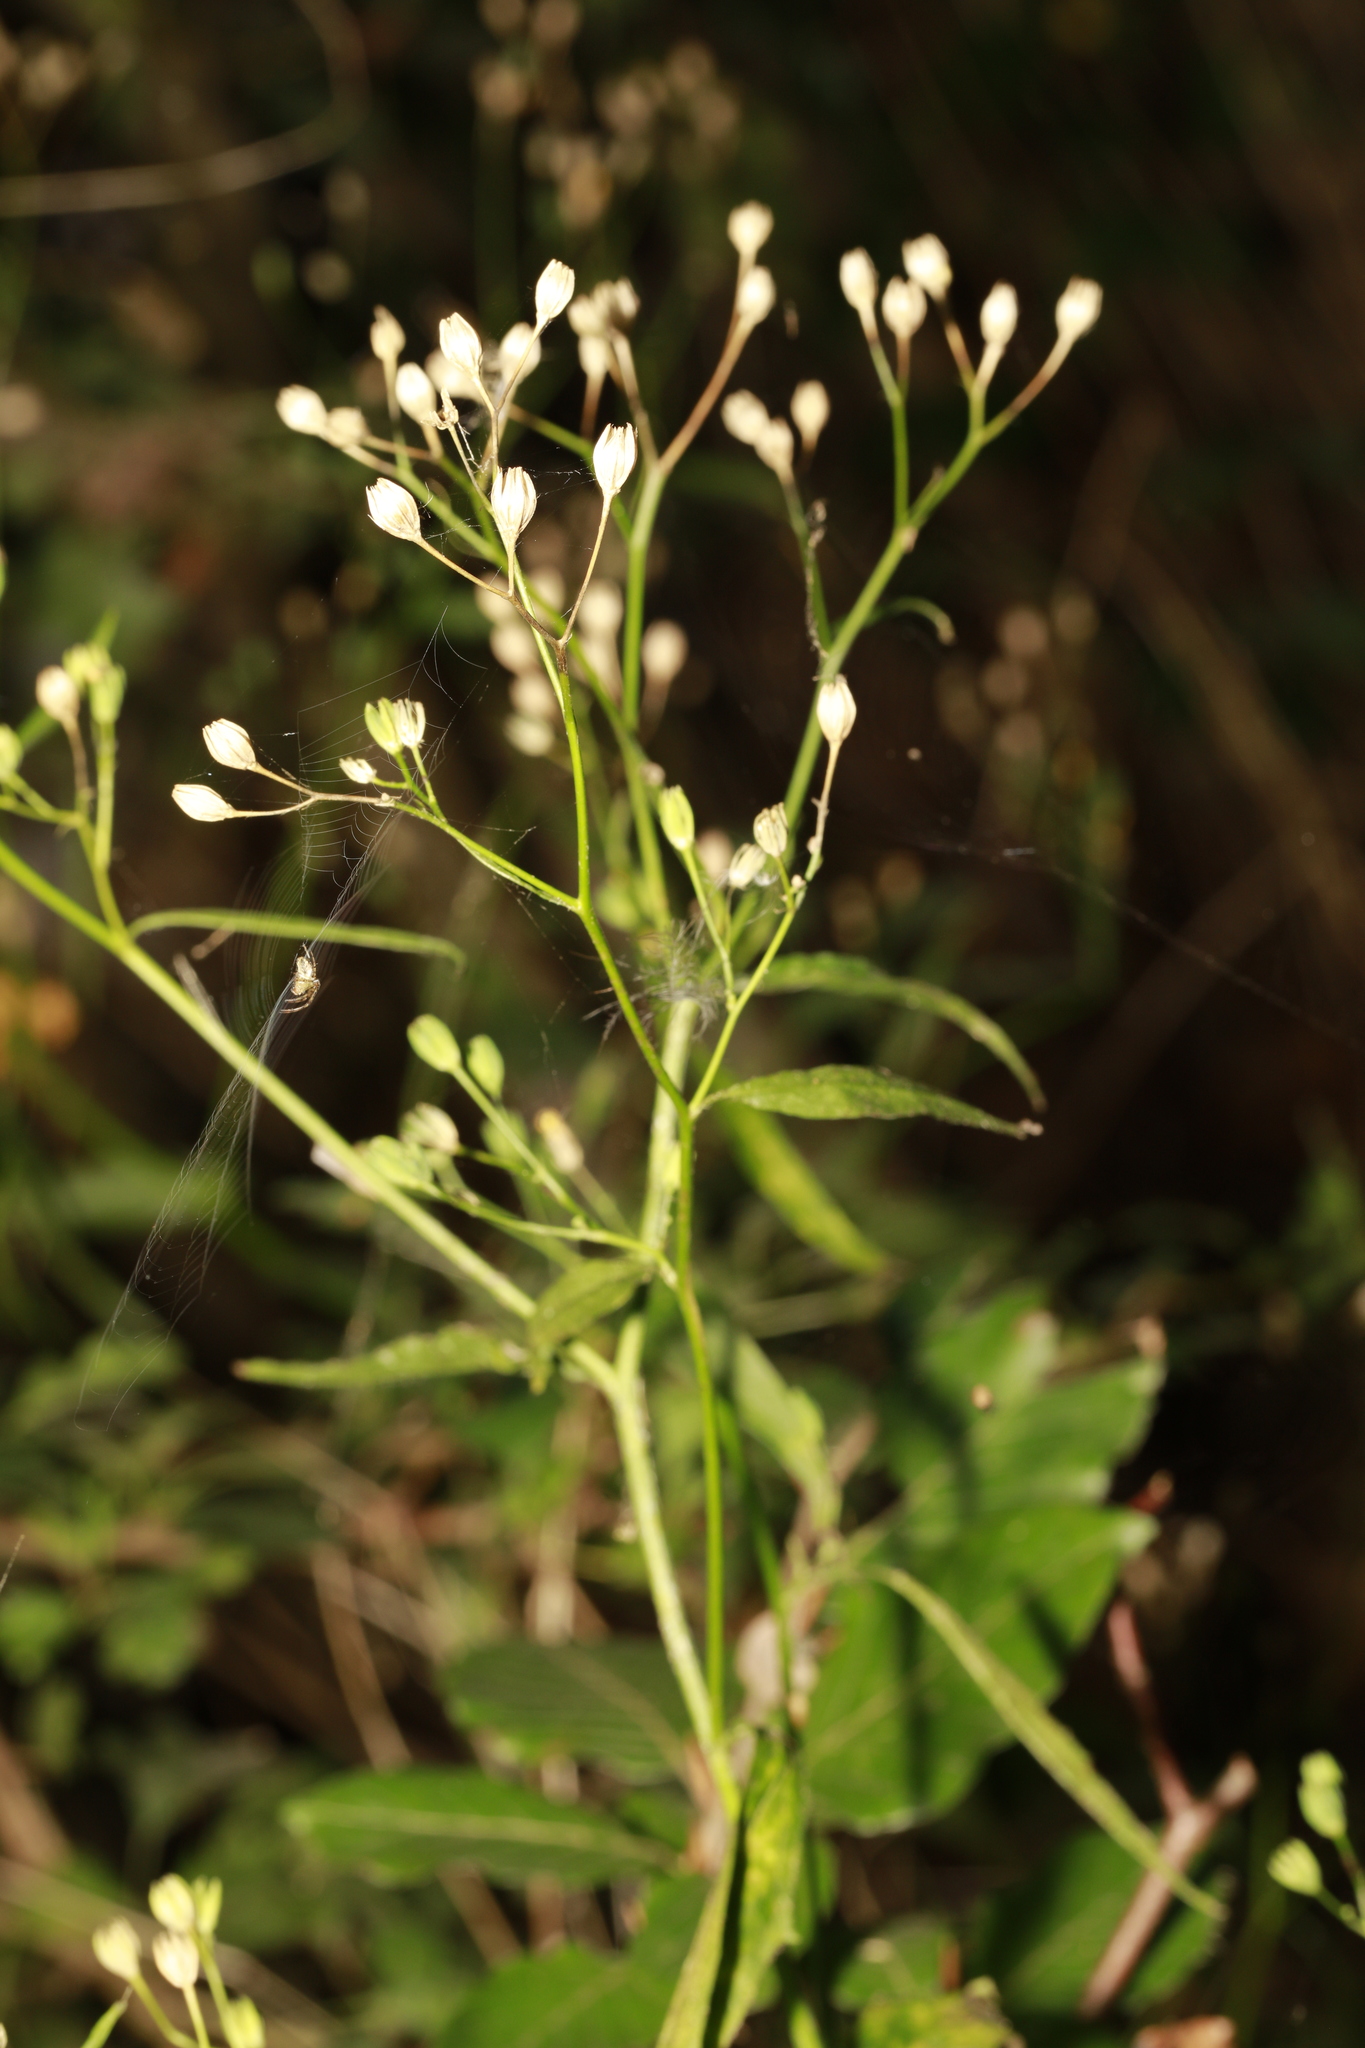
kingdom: Plantae
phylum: Tracheophyta
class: Magnoliopsida
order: Asterales
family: Asteraceae
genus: Lapsana
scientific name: Lapsana communis
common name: Nipplewort
